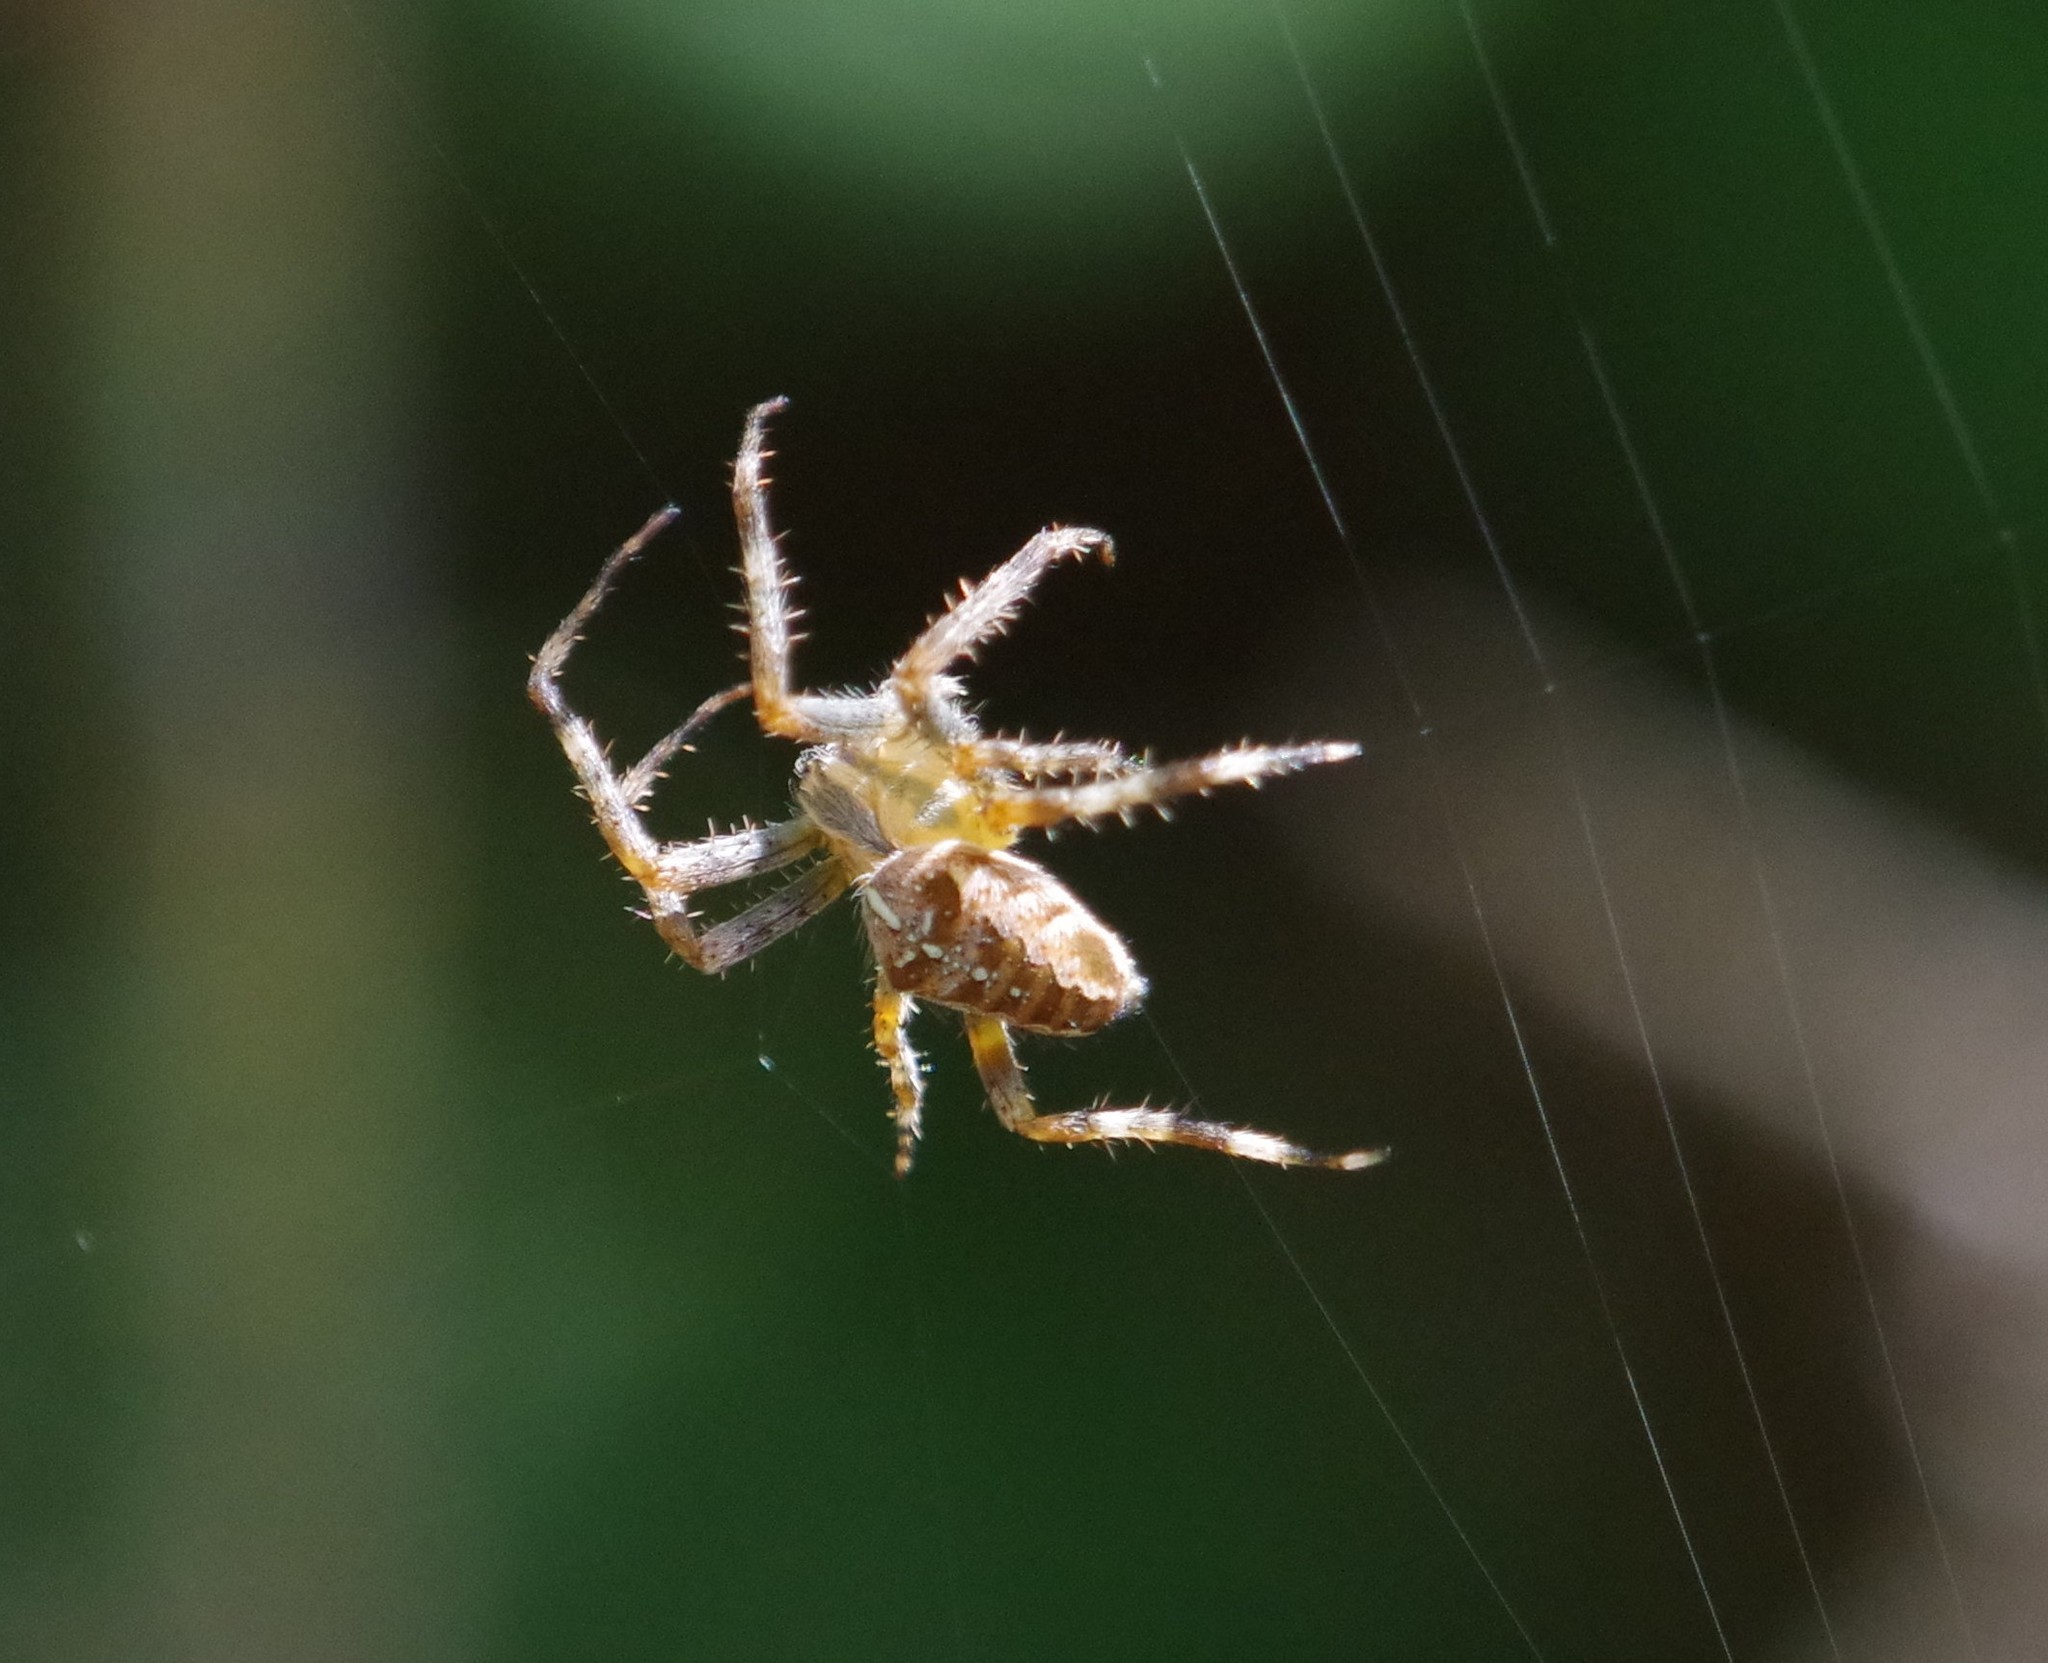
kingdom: Animalia
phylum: Arthropoda
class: Arachnida
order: Araneae
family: Araneidae
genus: Araneus
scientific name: Araneus diadematus
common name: Cross orbweaver
